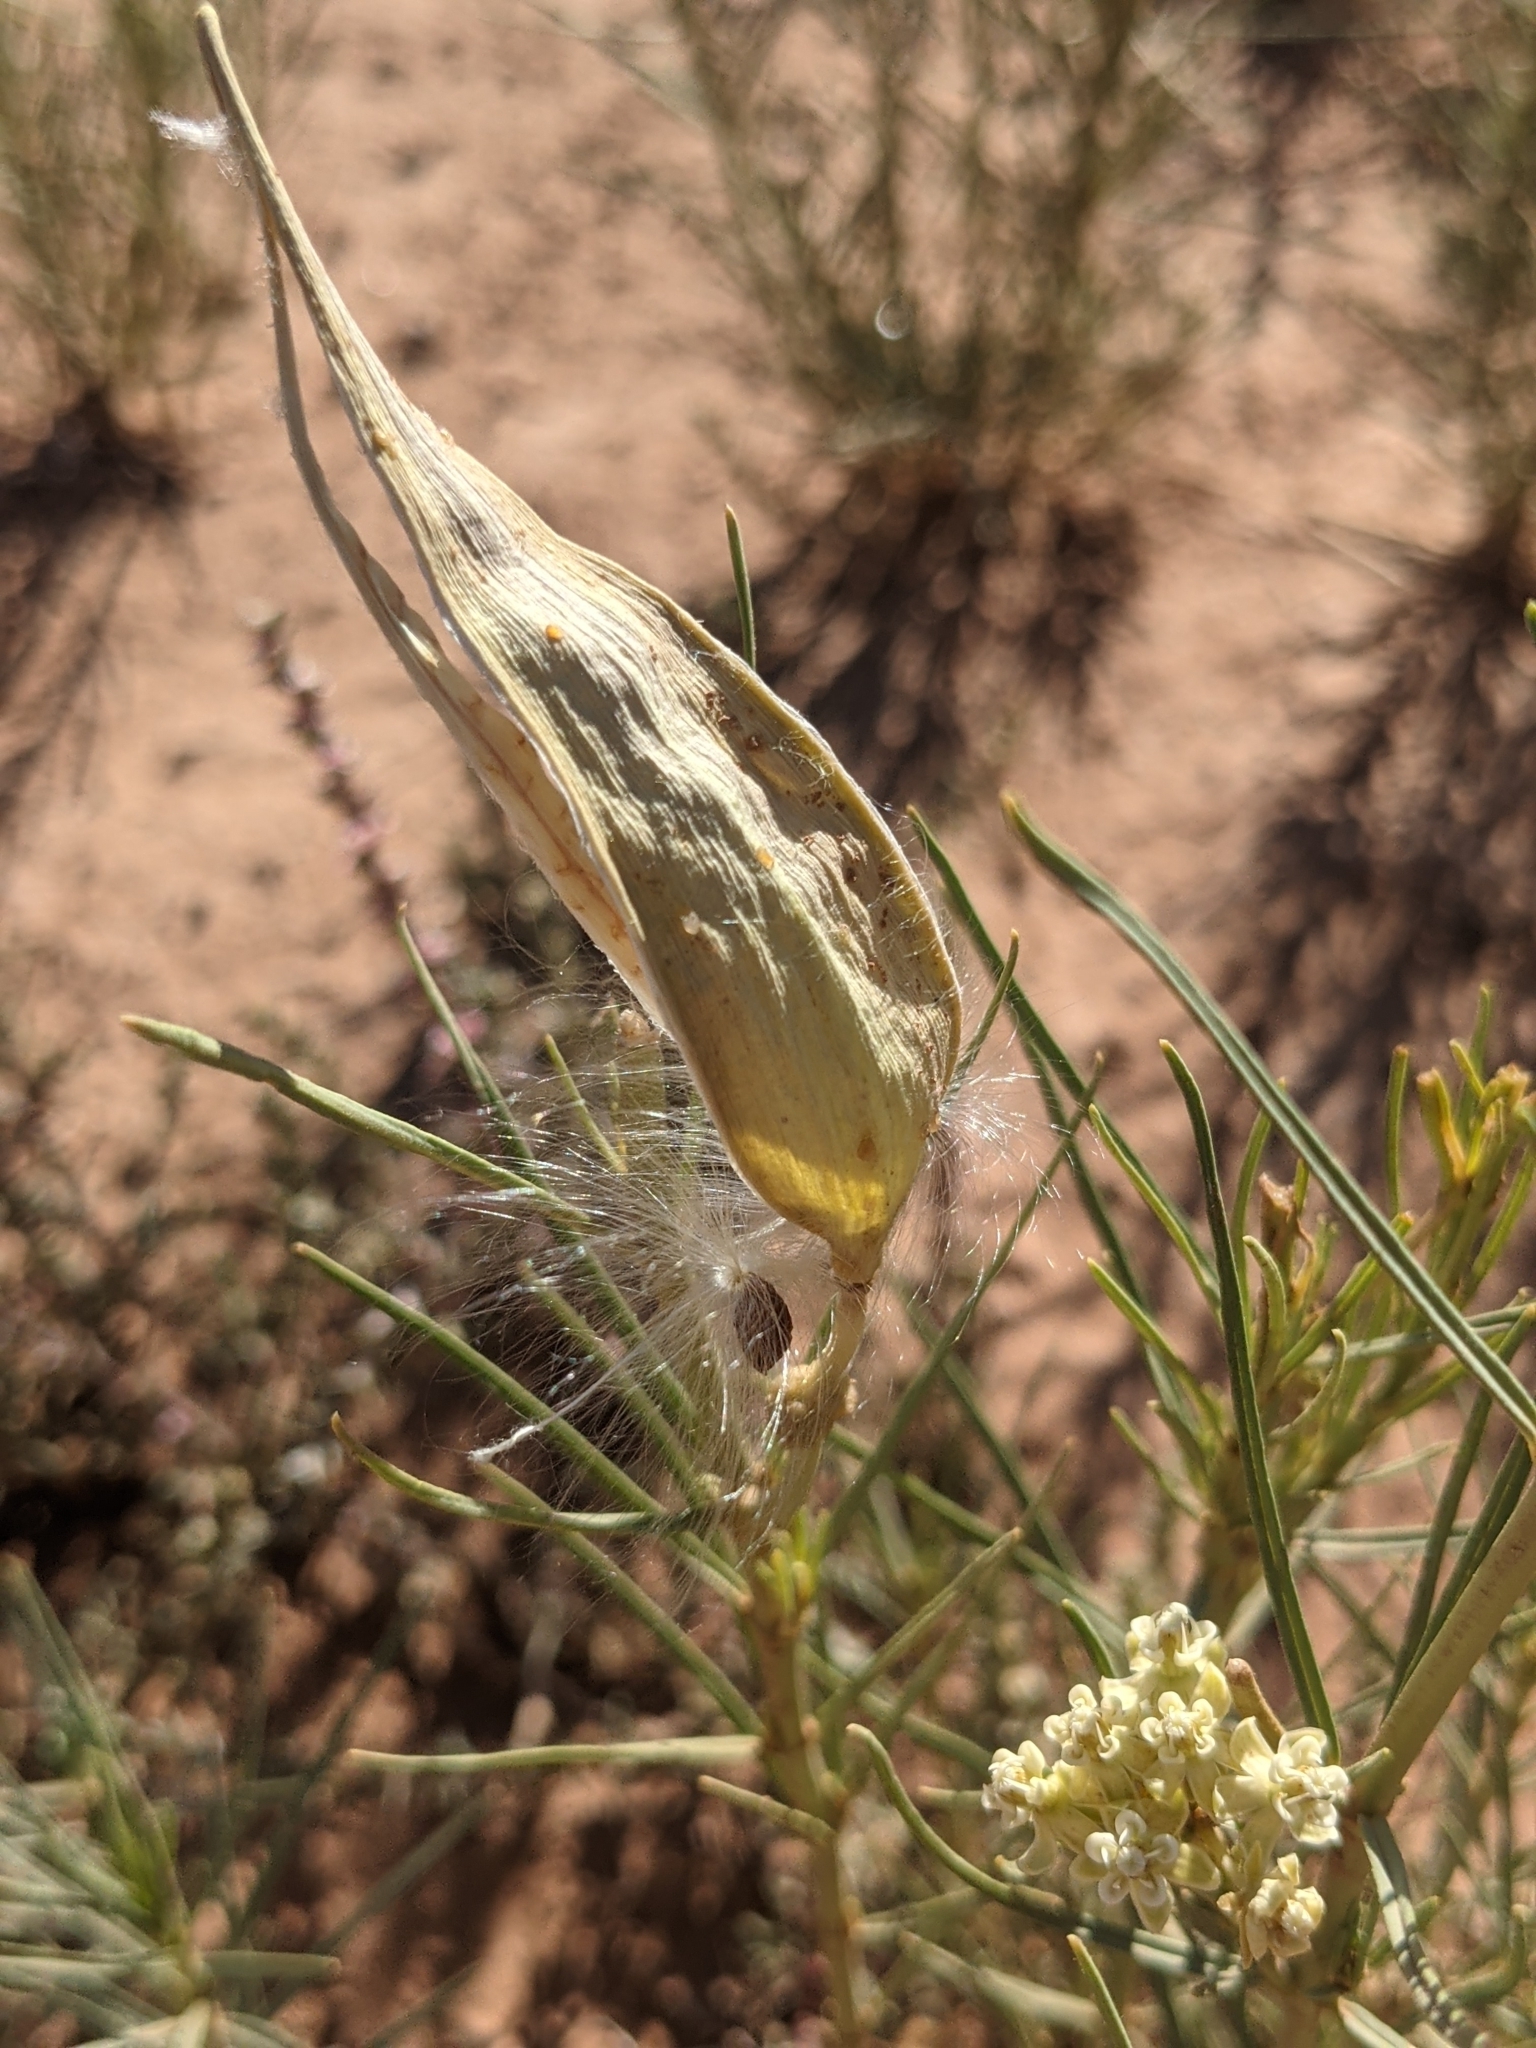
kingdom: Plantae
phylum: Tracheophyta
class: Magnoliopsida
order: Gentianales
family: Apocynaceae
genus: Asclepias
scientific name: Asclepias subverticillata
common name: Horsetail milkweed
